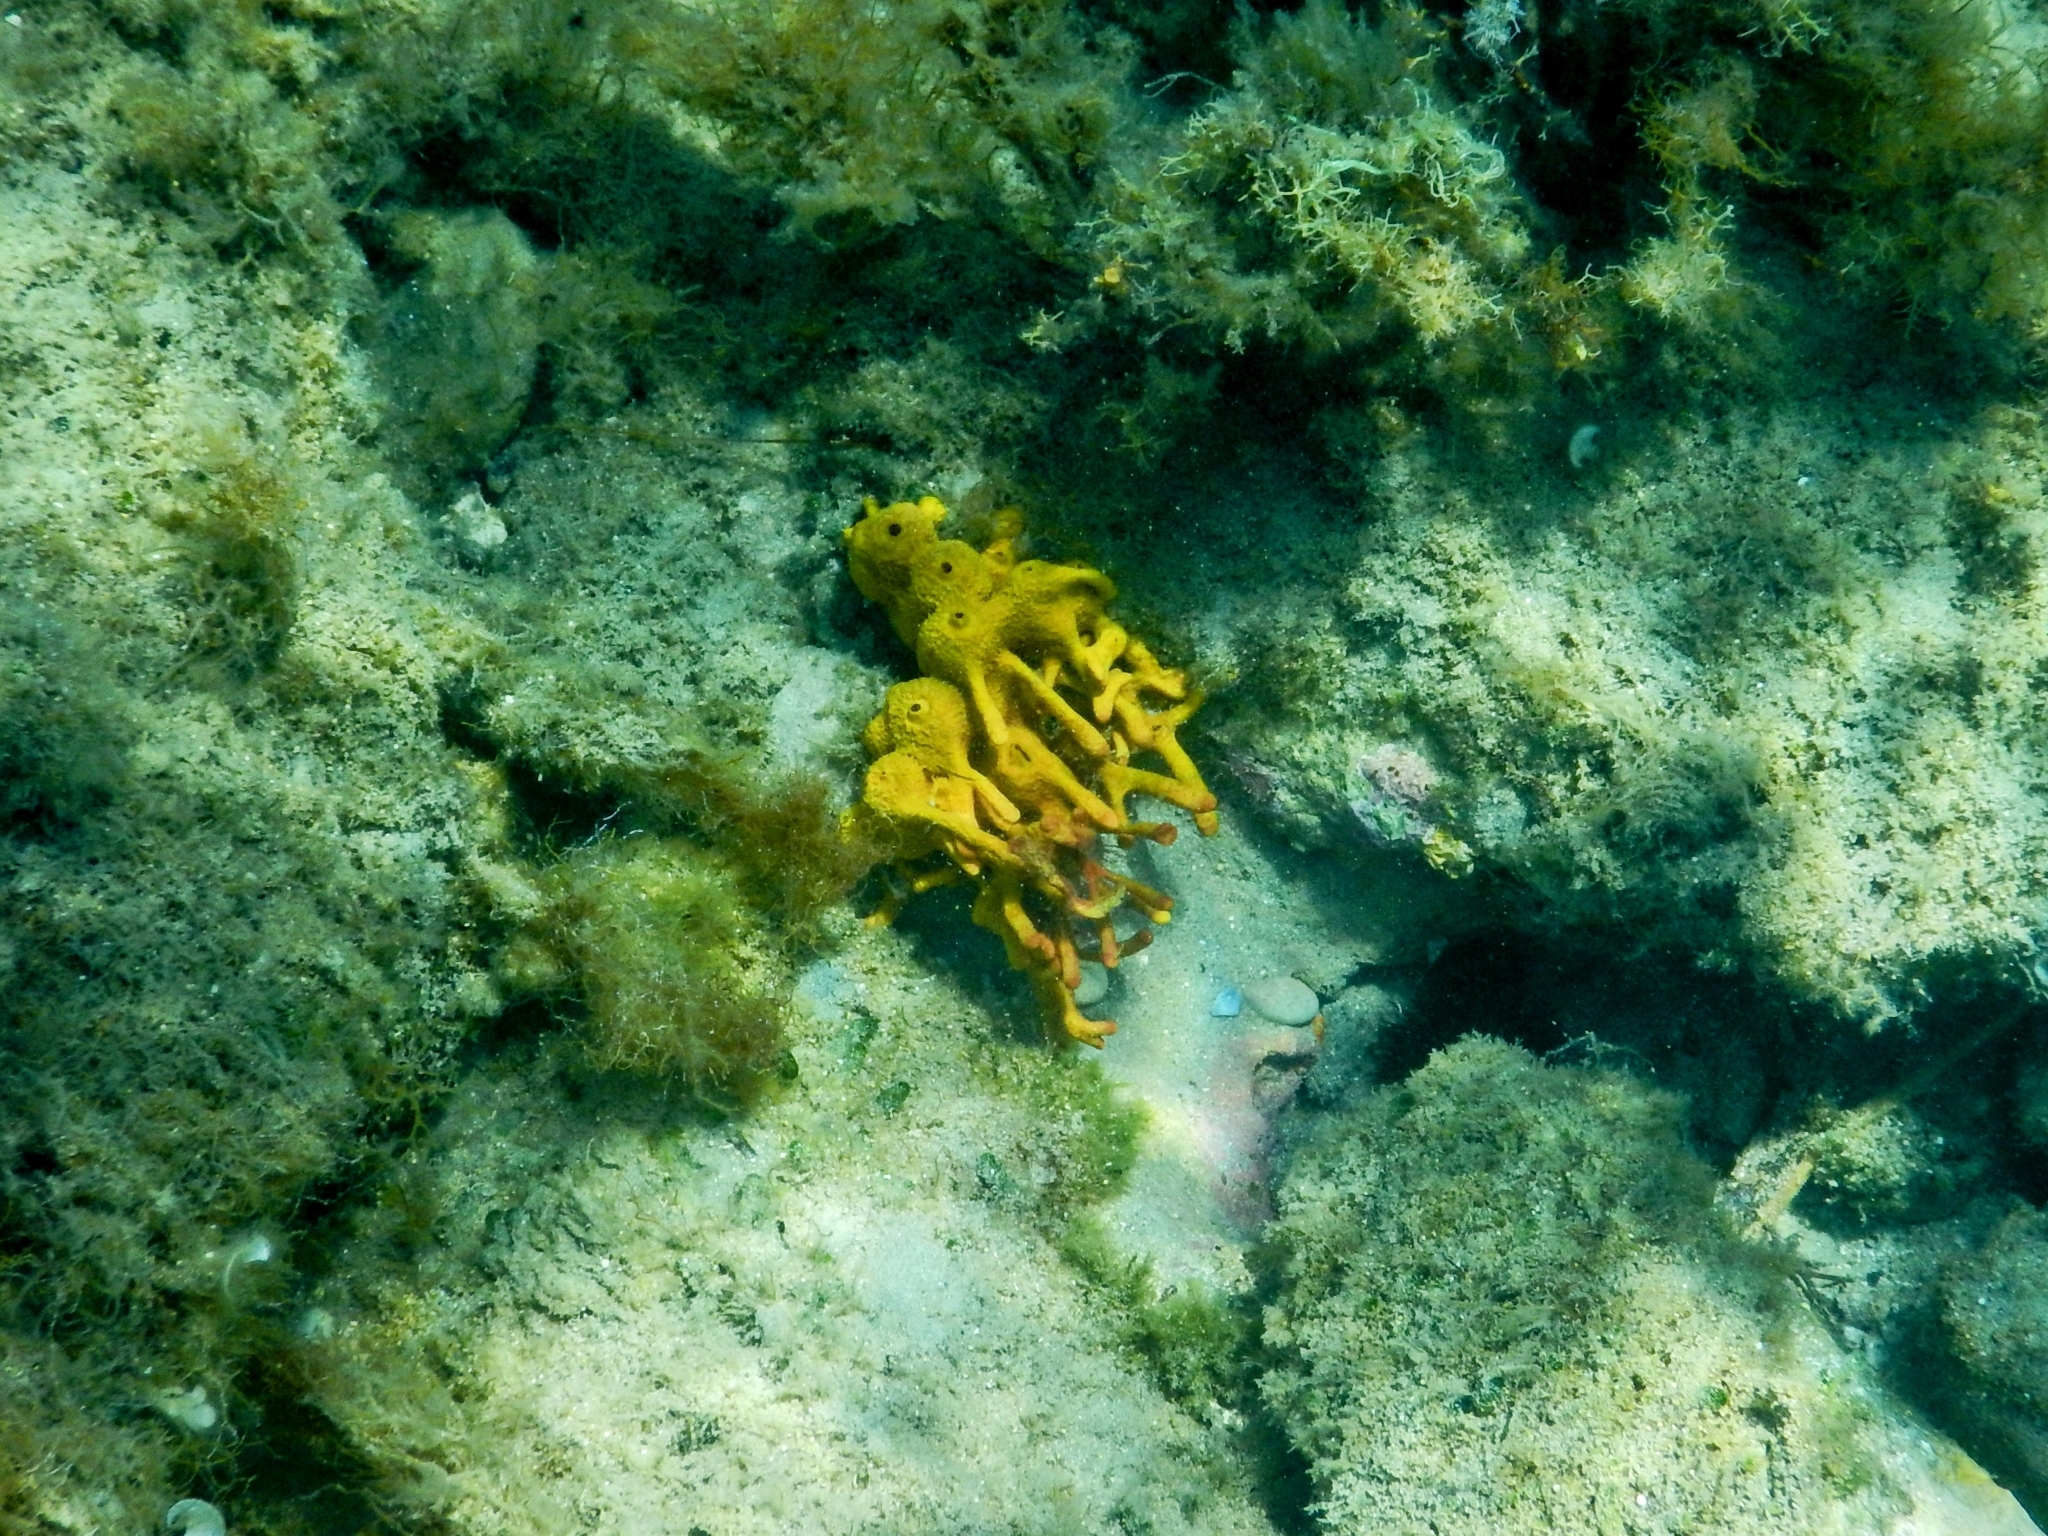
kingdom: Animalia
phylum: Porifera
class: Demospongiae
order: Verongiida
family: Aplysinidae
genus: Aplysina
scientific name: Aplysina aerophoba
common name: Aureate sponge
